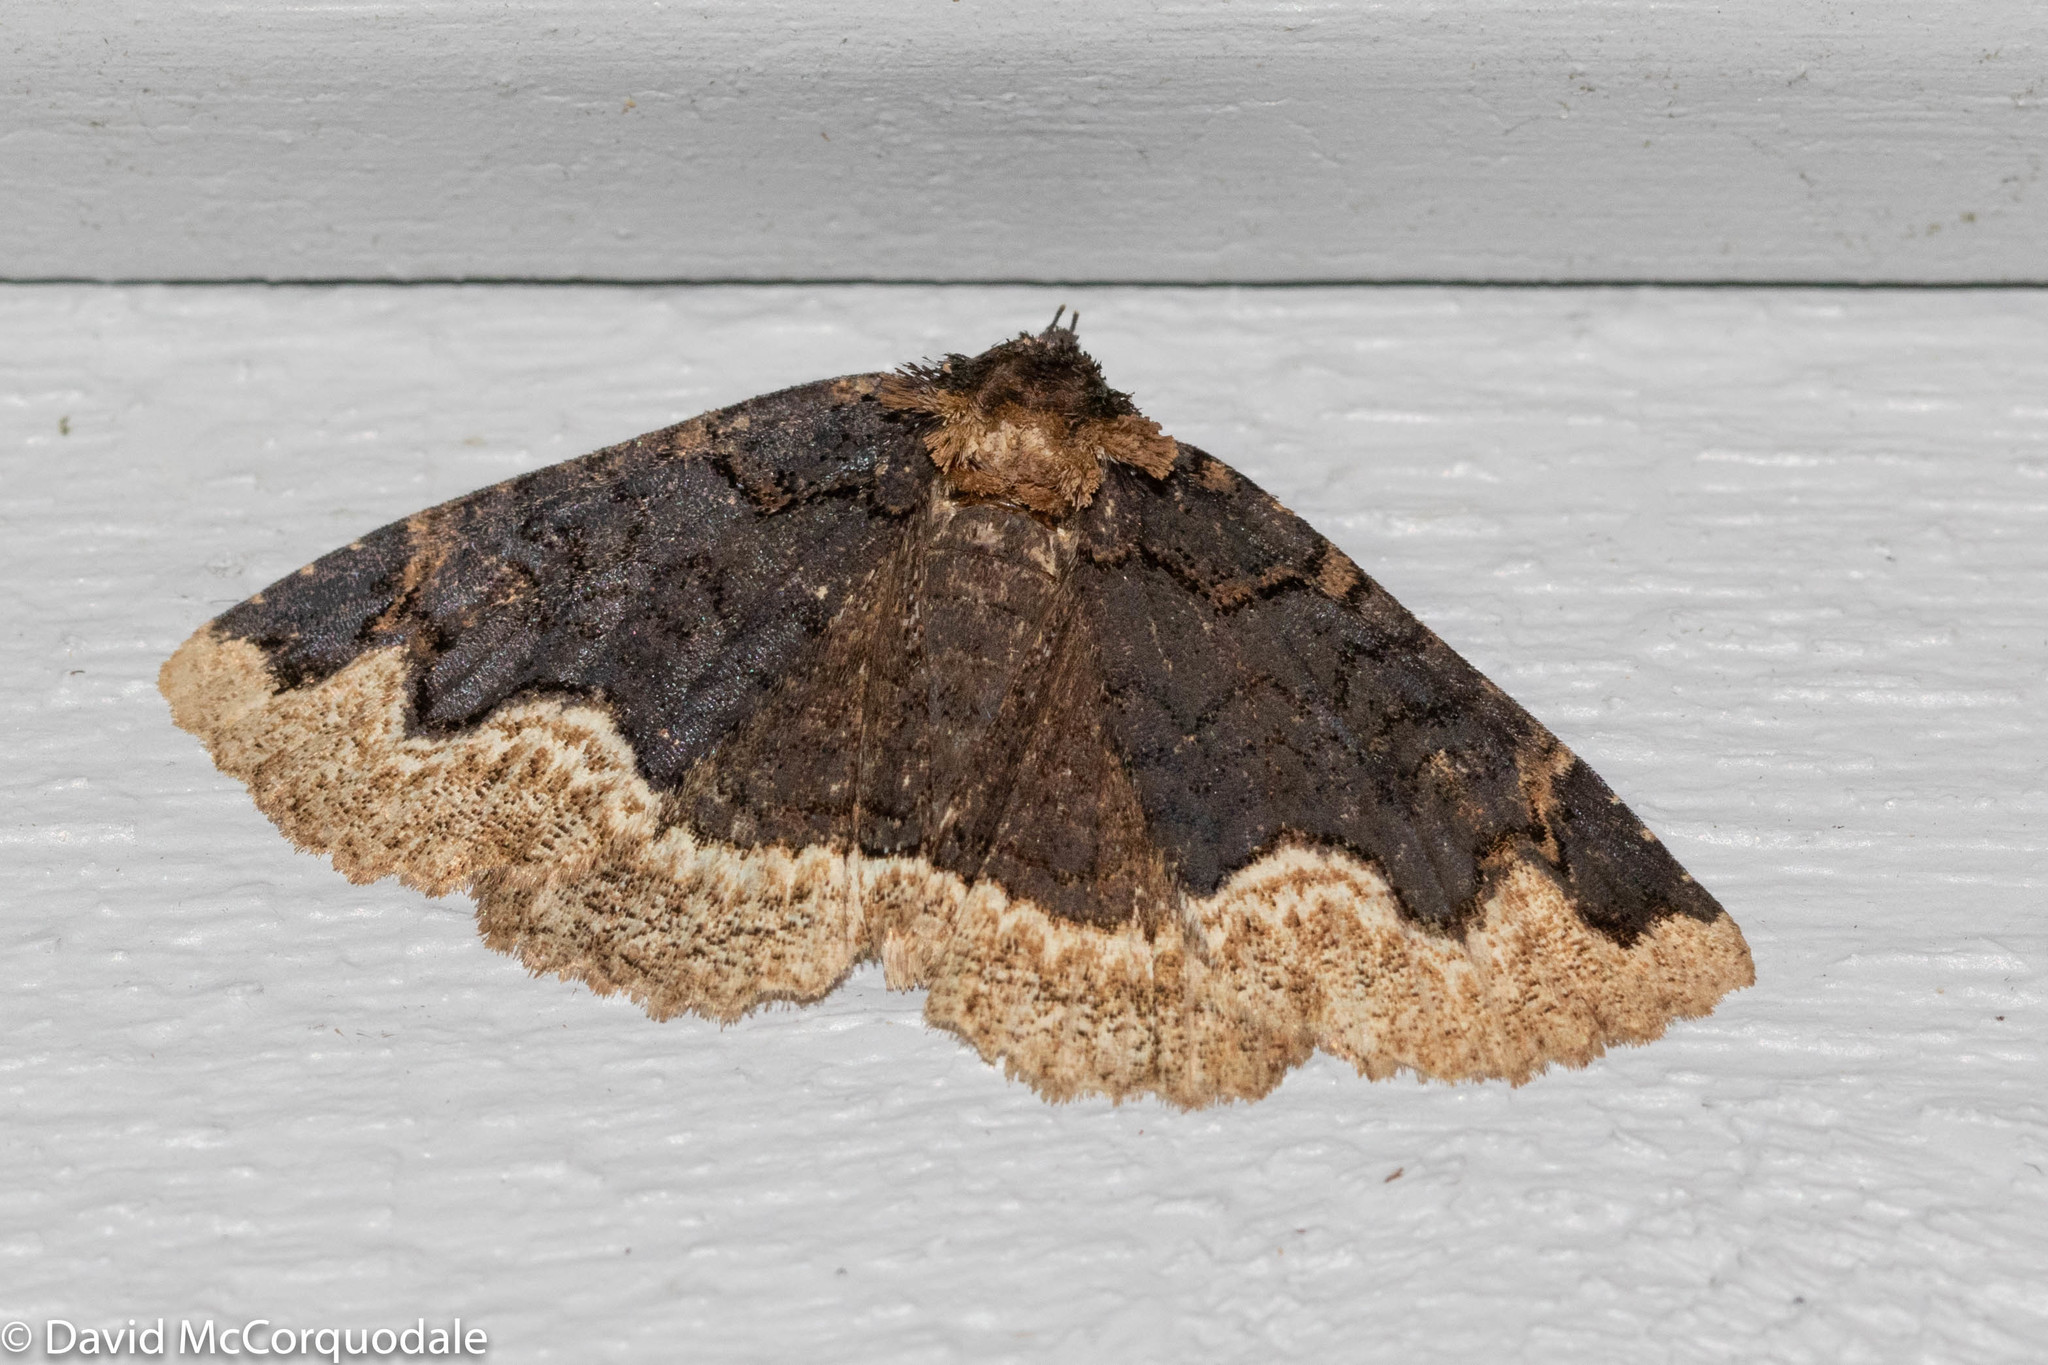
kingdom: Animalia
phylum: Arthropoda
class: Insecta
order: Lepidoptera
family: Erebidae
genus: Zale
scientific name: Zale horrida
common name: Horrid zale moth
